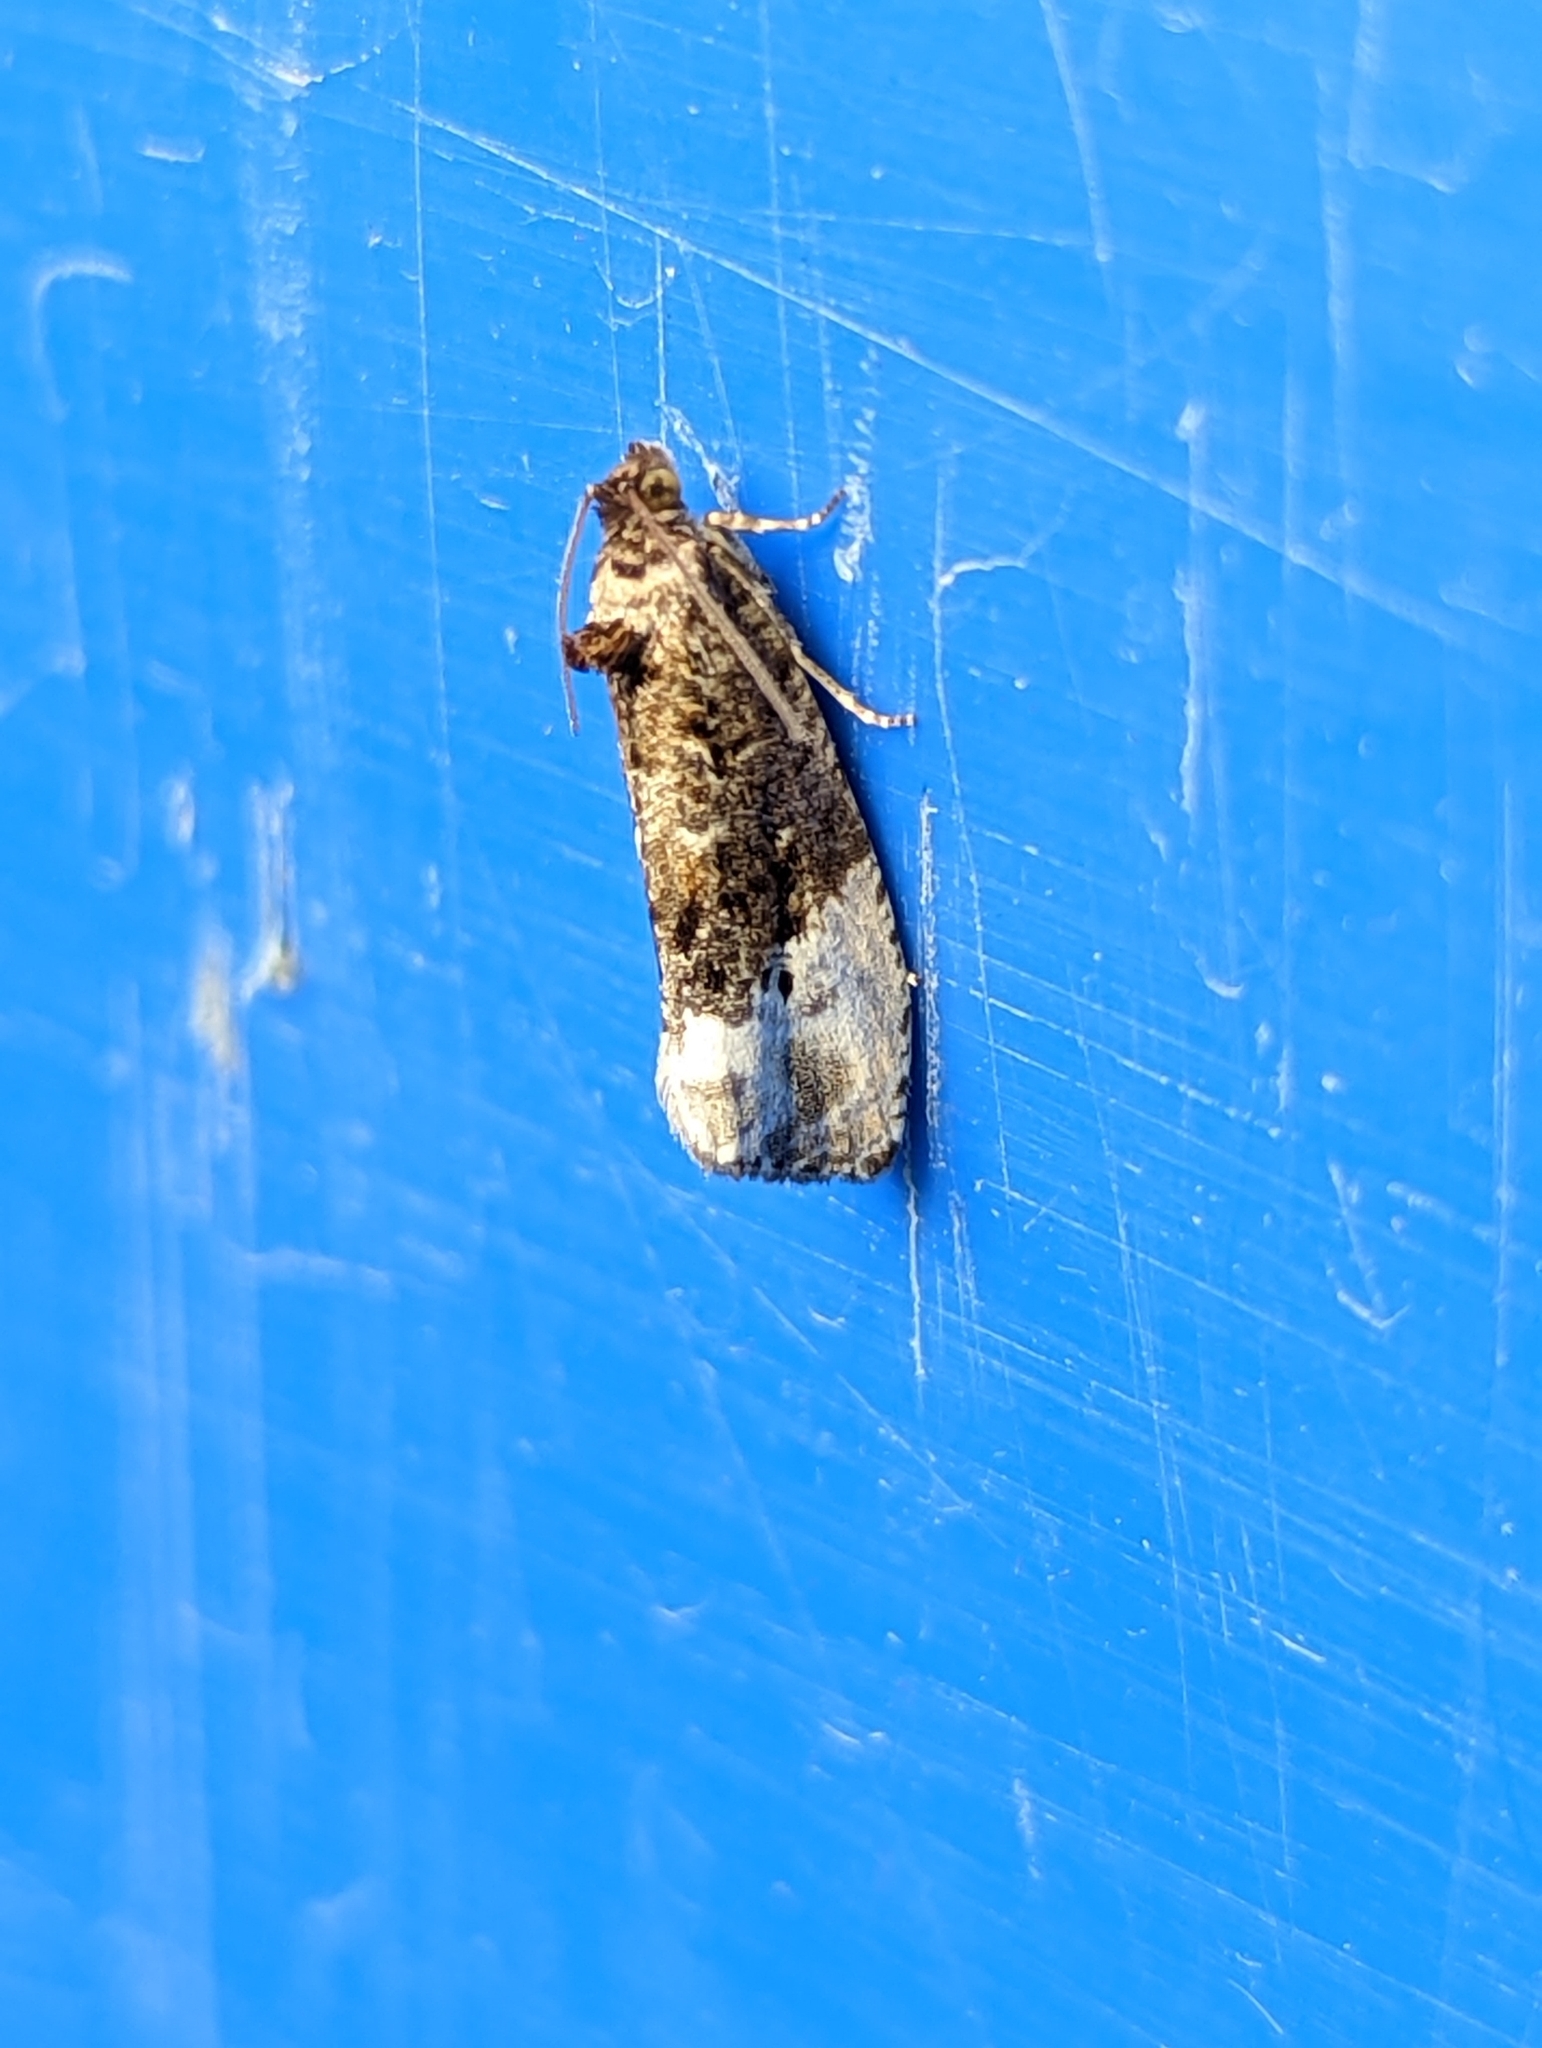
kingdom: Animalia
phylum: Arthropoda
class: Insecta
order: Lepidoptera
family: Tortricidae
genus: Hedya
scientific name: Hedya nubiferana
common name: Marbled orchard tortrix
